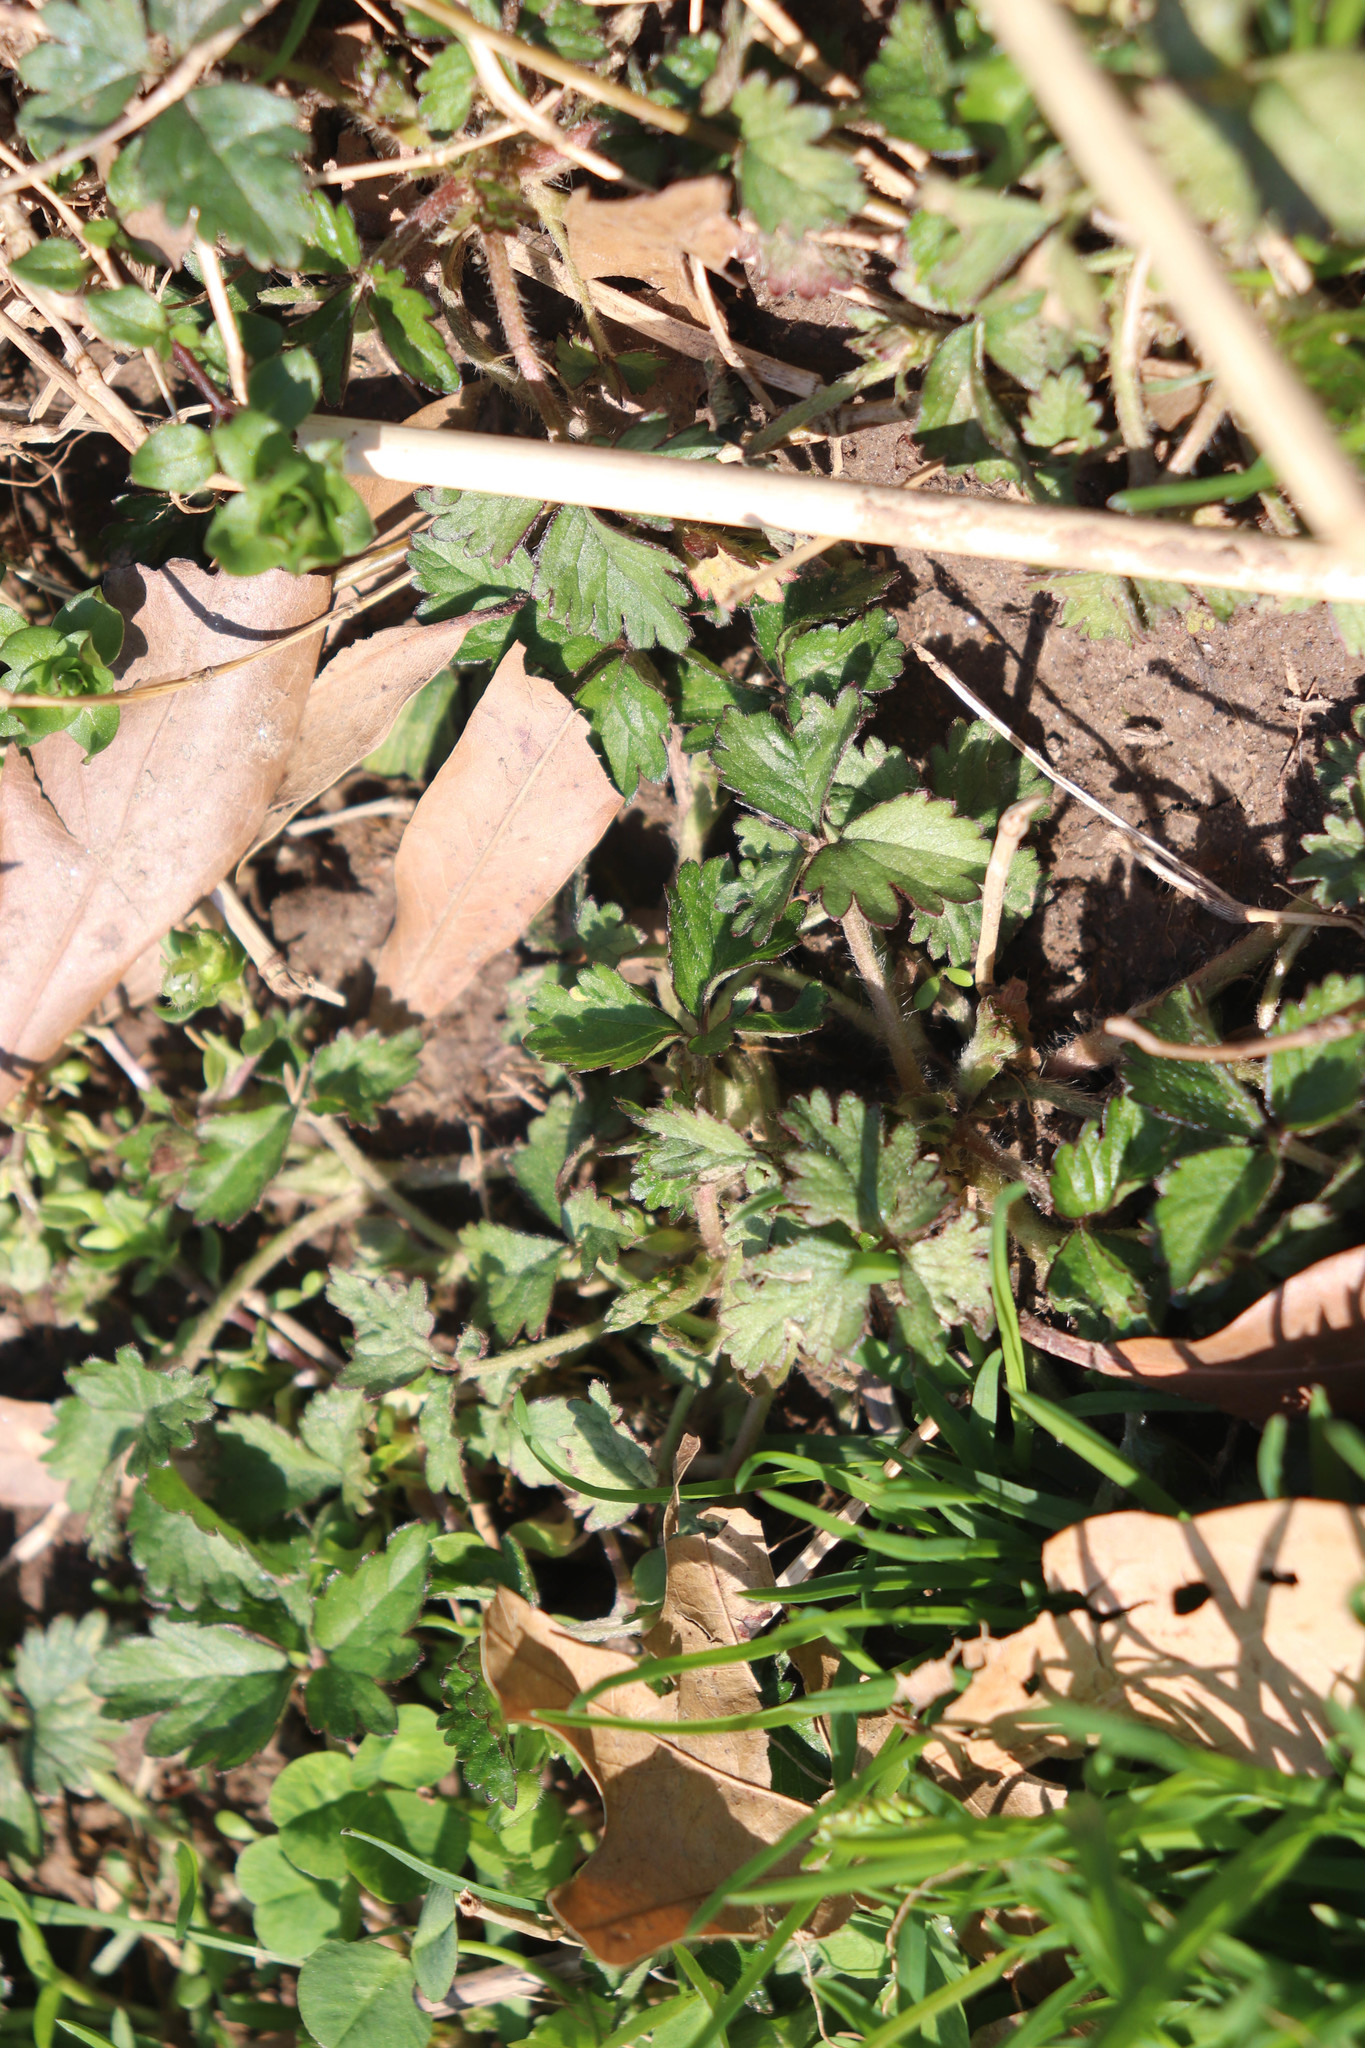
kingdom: Plantae
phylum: Tracheophyta
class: Magnoliopsida
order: Rosales
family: Rosaceae
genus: Potentilla
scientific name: Potentilla indica
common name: Yellow-flowered strawberry
